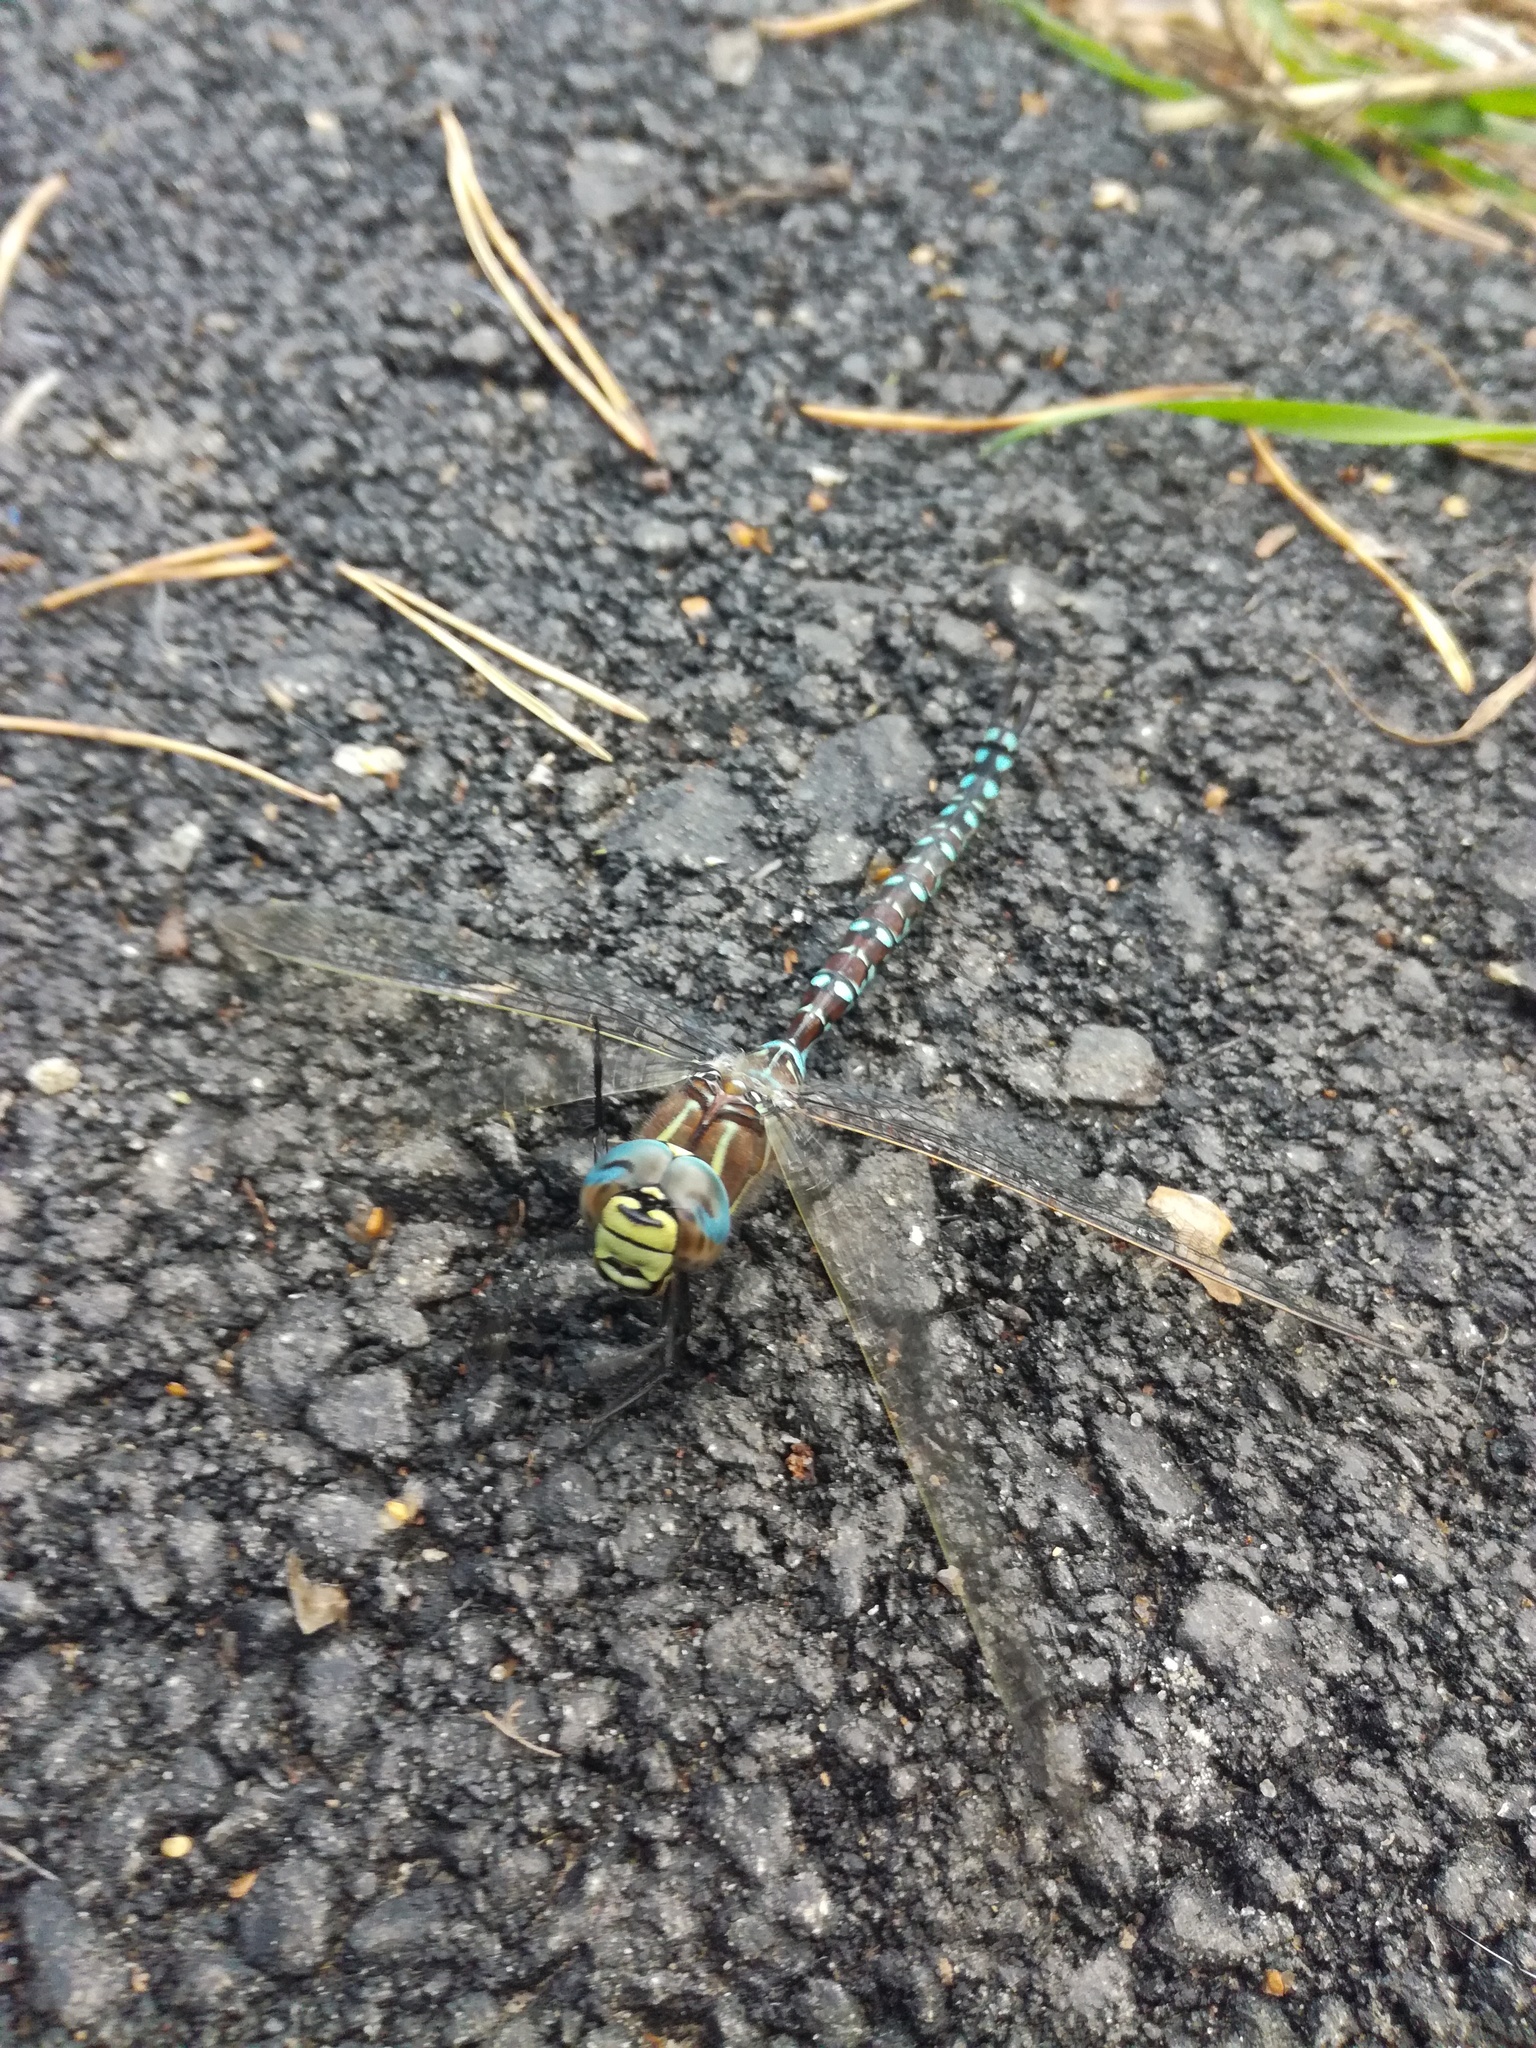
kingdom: Animalia
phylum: Arthropoda
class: Insecta
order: Odonata
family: Aeshnidae
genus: Aeshna
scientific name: Aeshna juncea
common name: Moorland hawker
